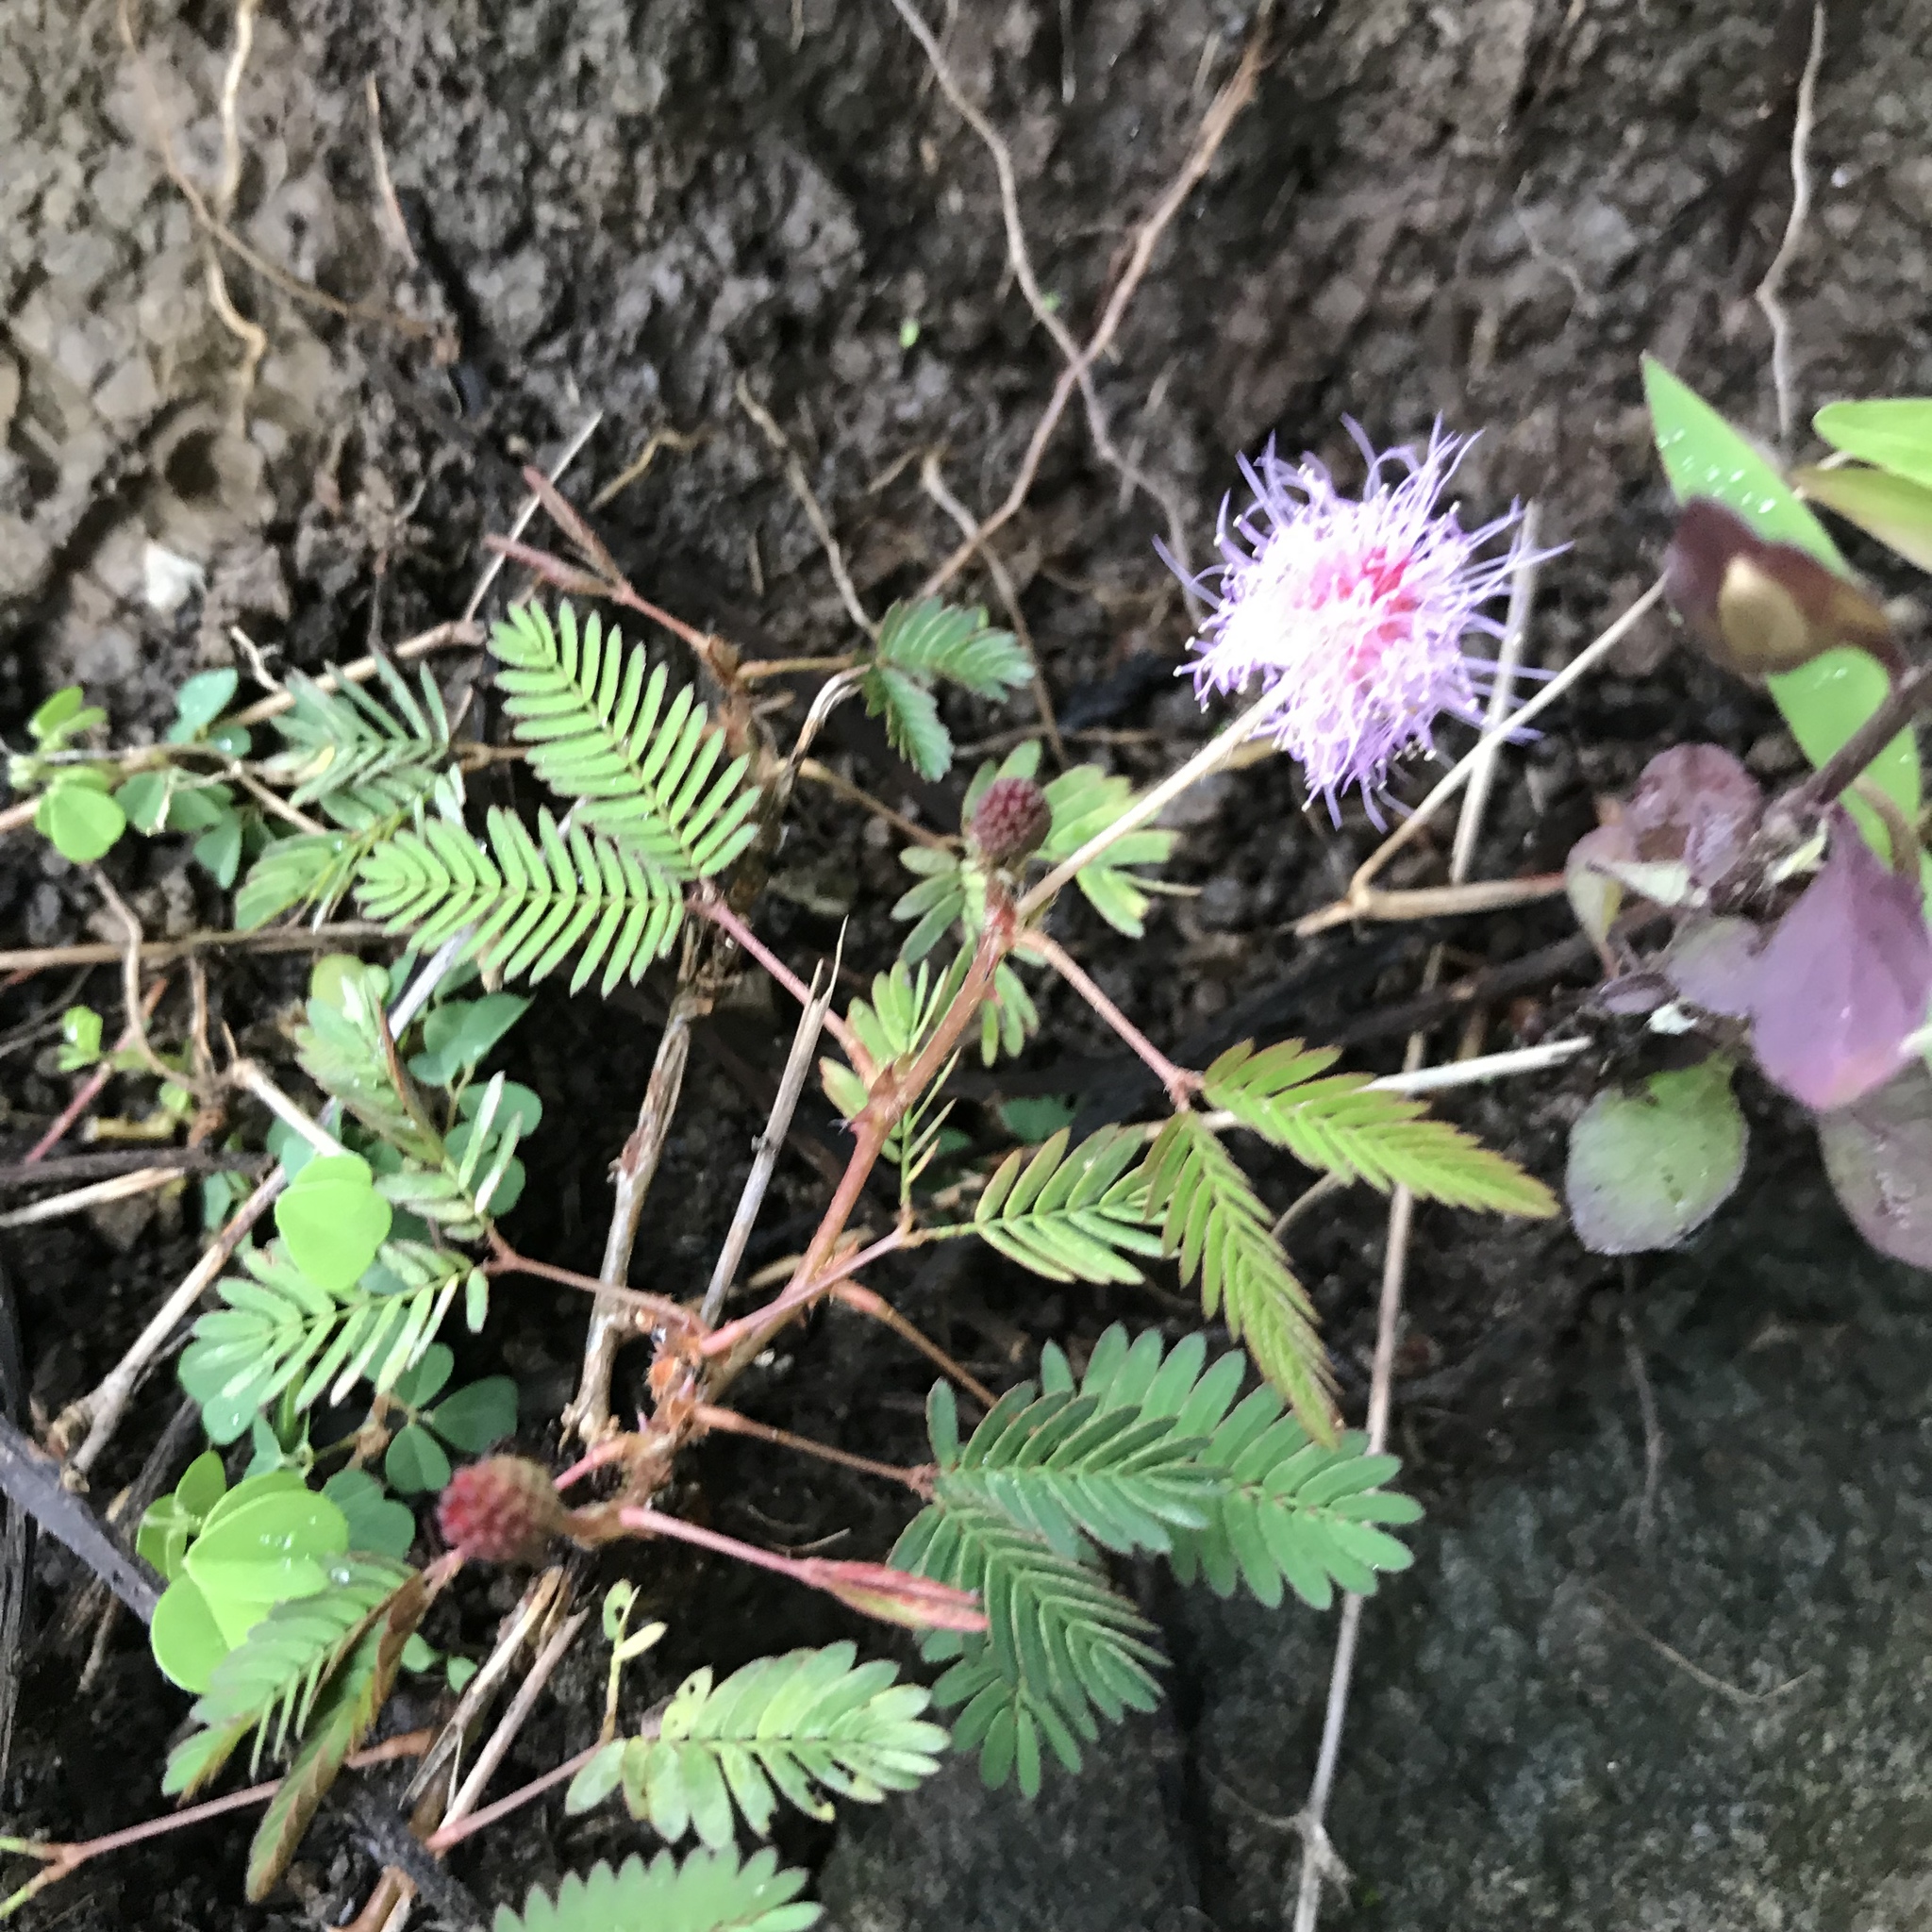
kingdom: Plantae
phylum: Tracheophyta
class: Magnoliopsida
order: Fabales
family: Fabaceae
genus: Mimosa
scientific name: Mimosa pudica
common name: Sensitive plant
